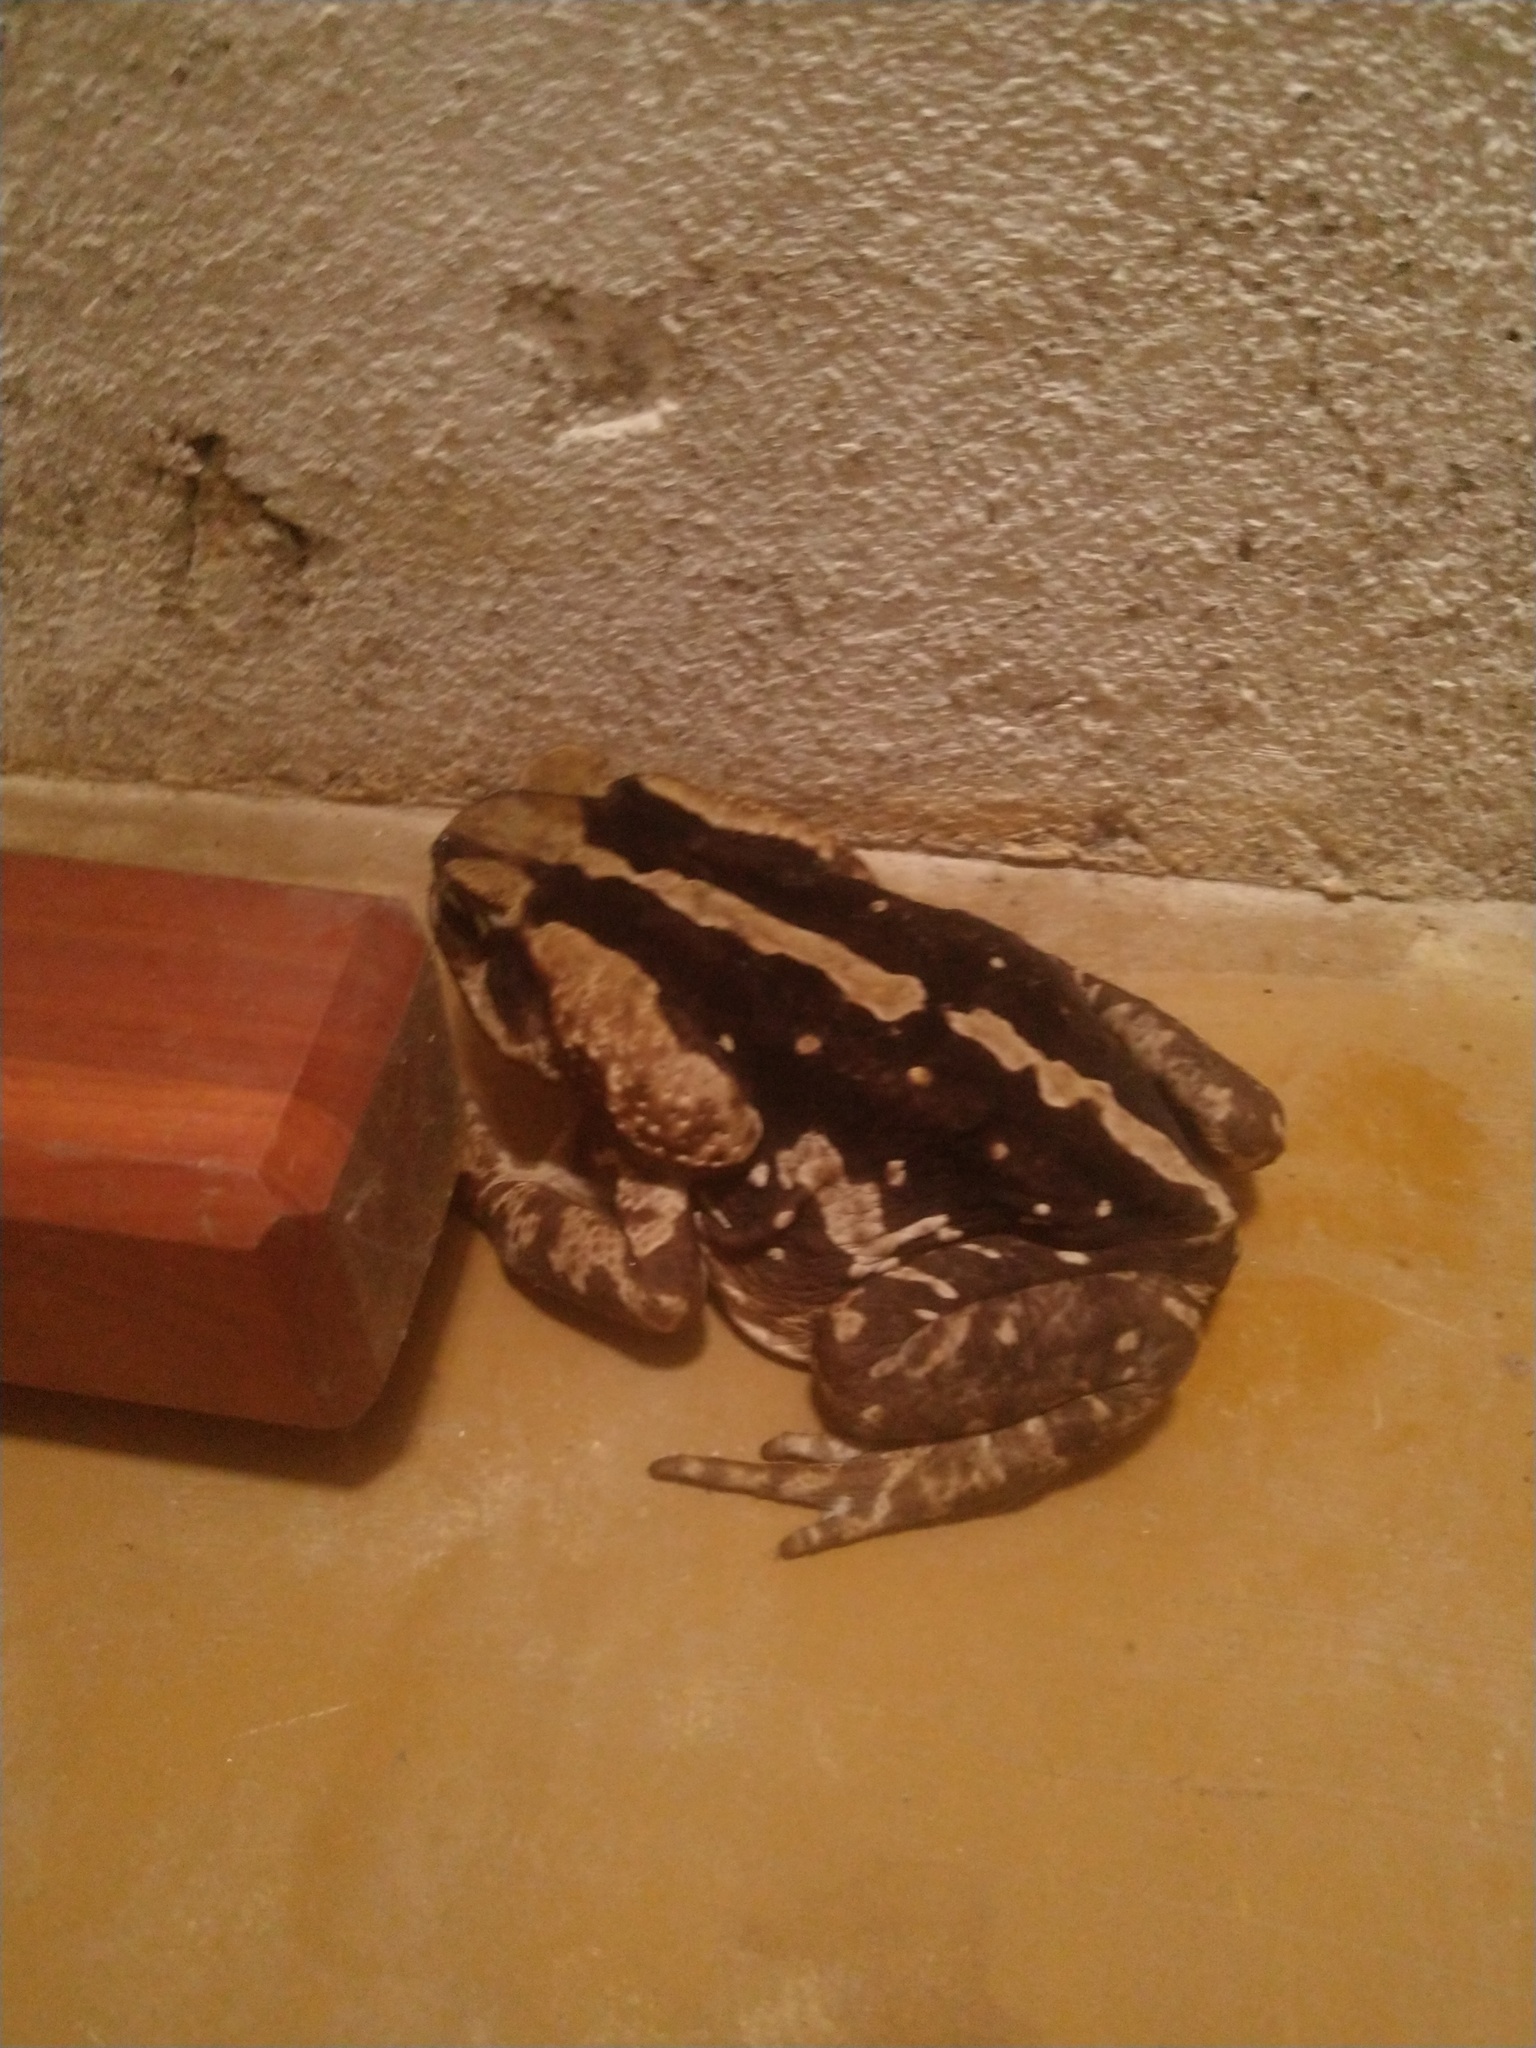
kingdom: Animalia
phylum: Chordata
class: Amphibia
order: Anura
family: Bufonidae
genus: Rhinella
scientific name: Rhinella icterica
